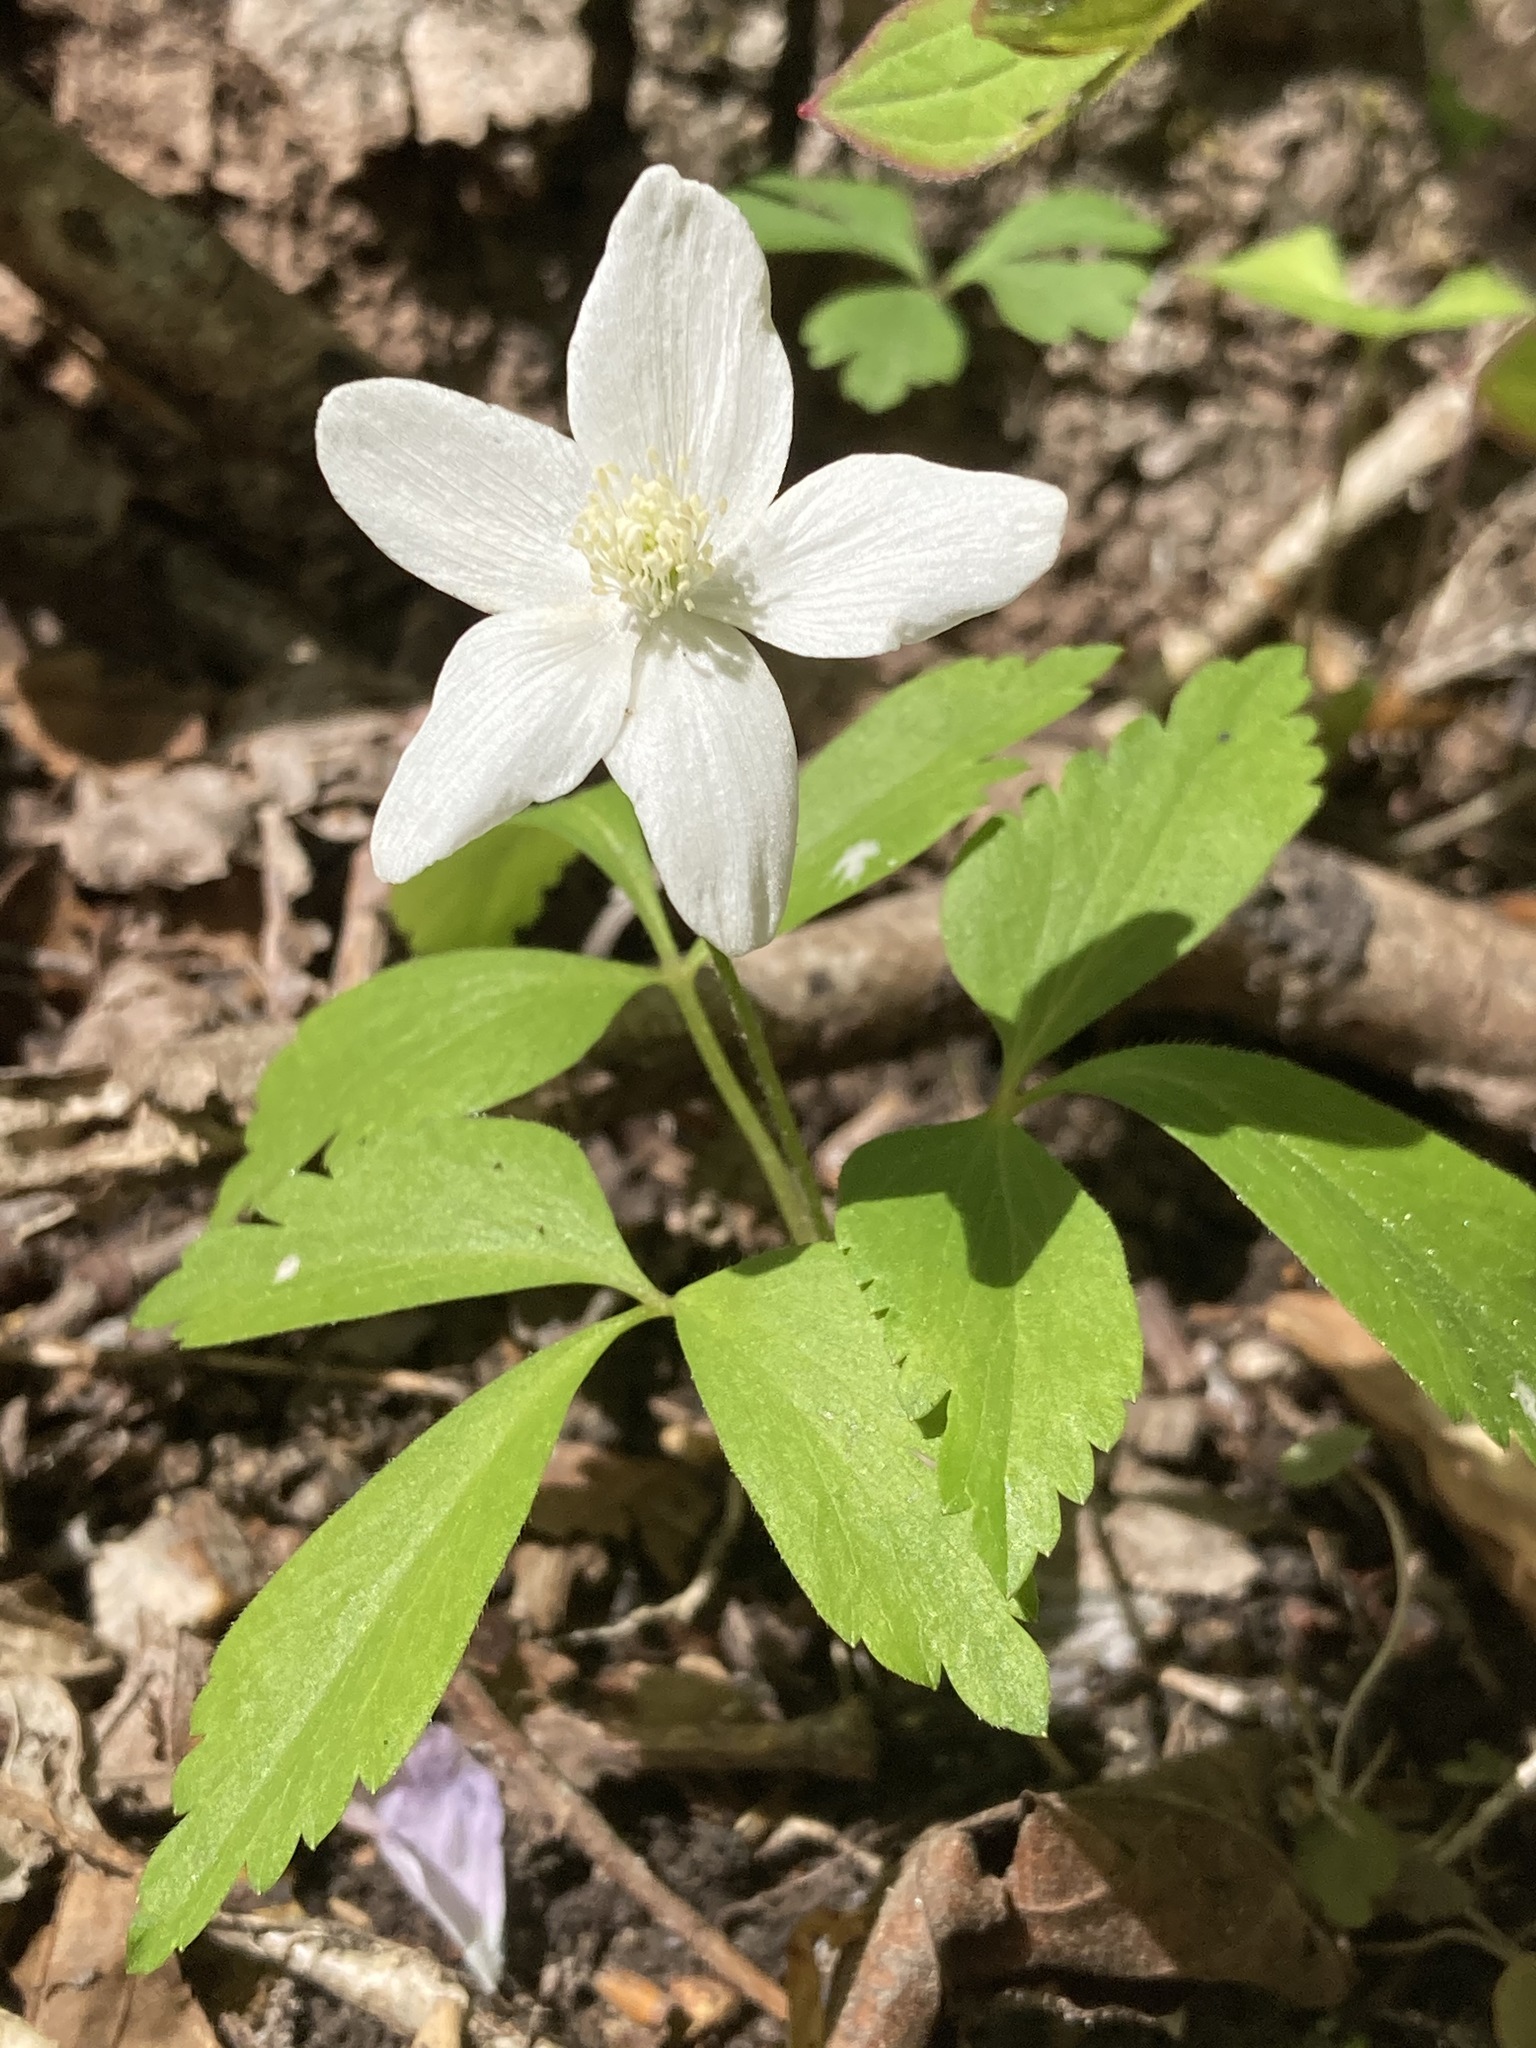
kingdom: Plantae
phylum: Tracheophyta
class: Magnoliopsida
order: Ranunculales
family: Ranunculaceae
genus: Anemone
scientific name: Anemone quinquefolia
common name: Wood anemone
